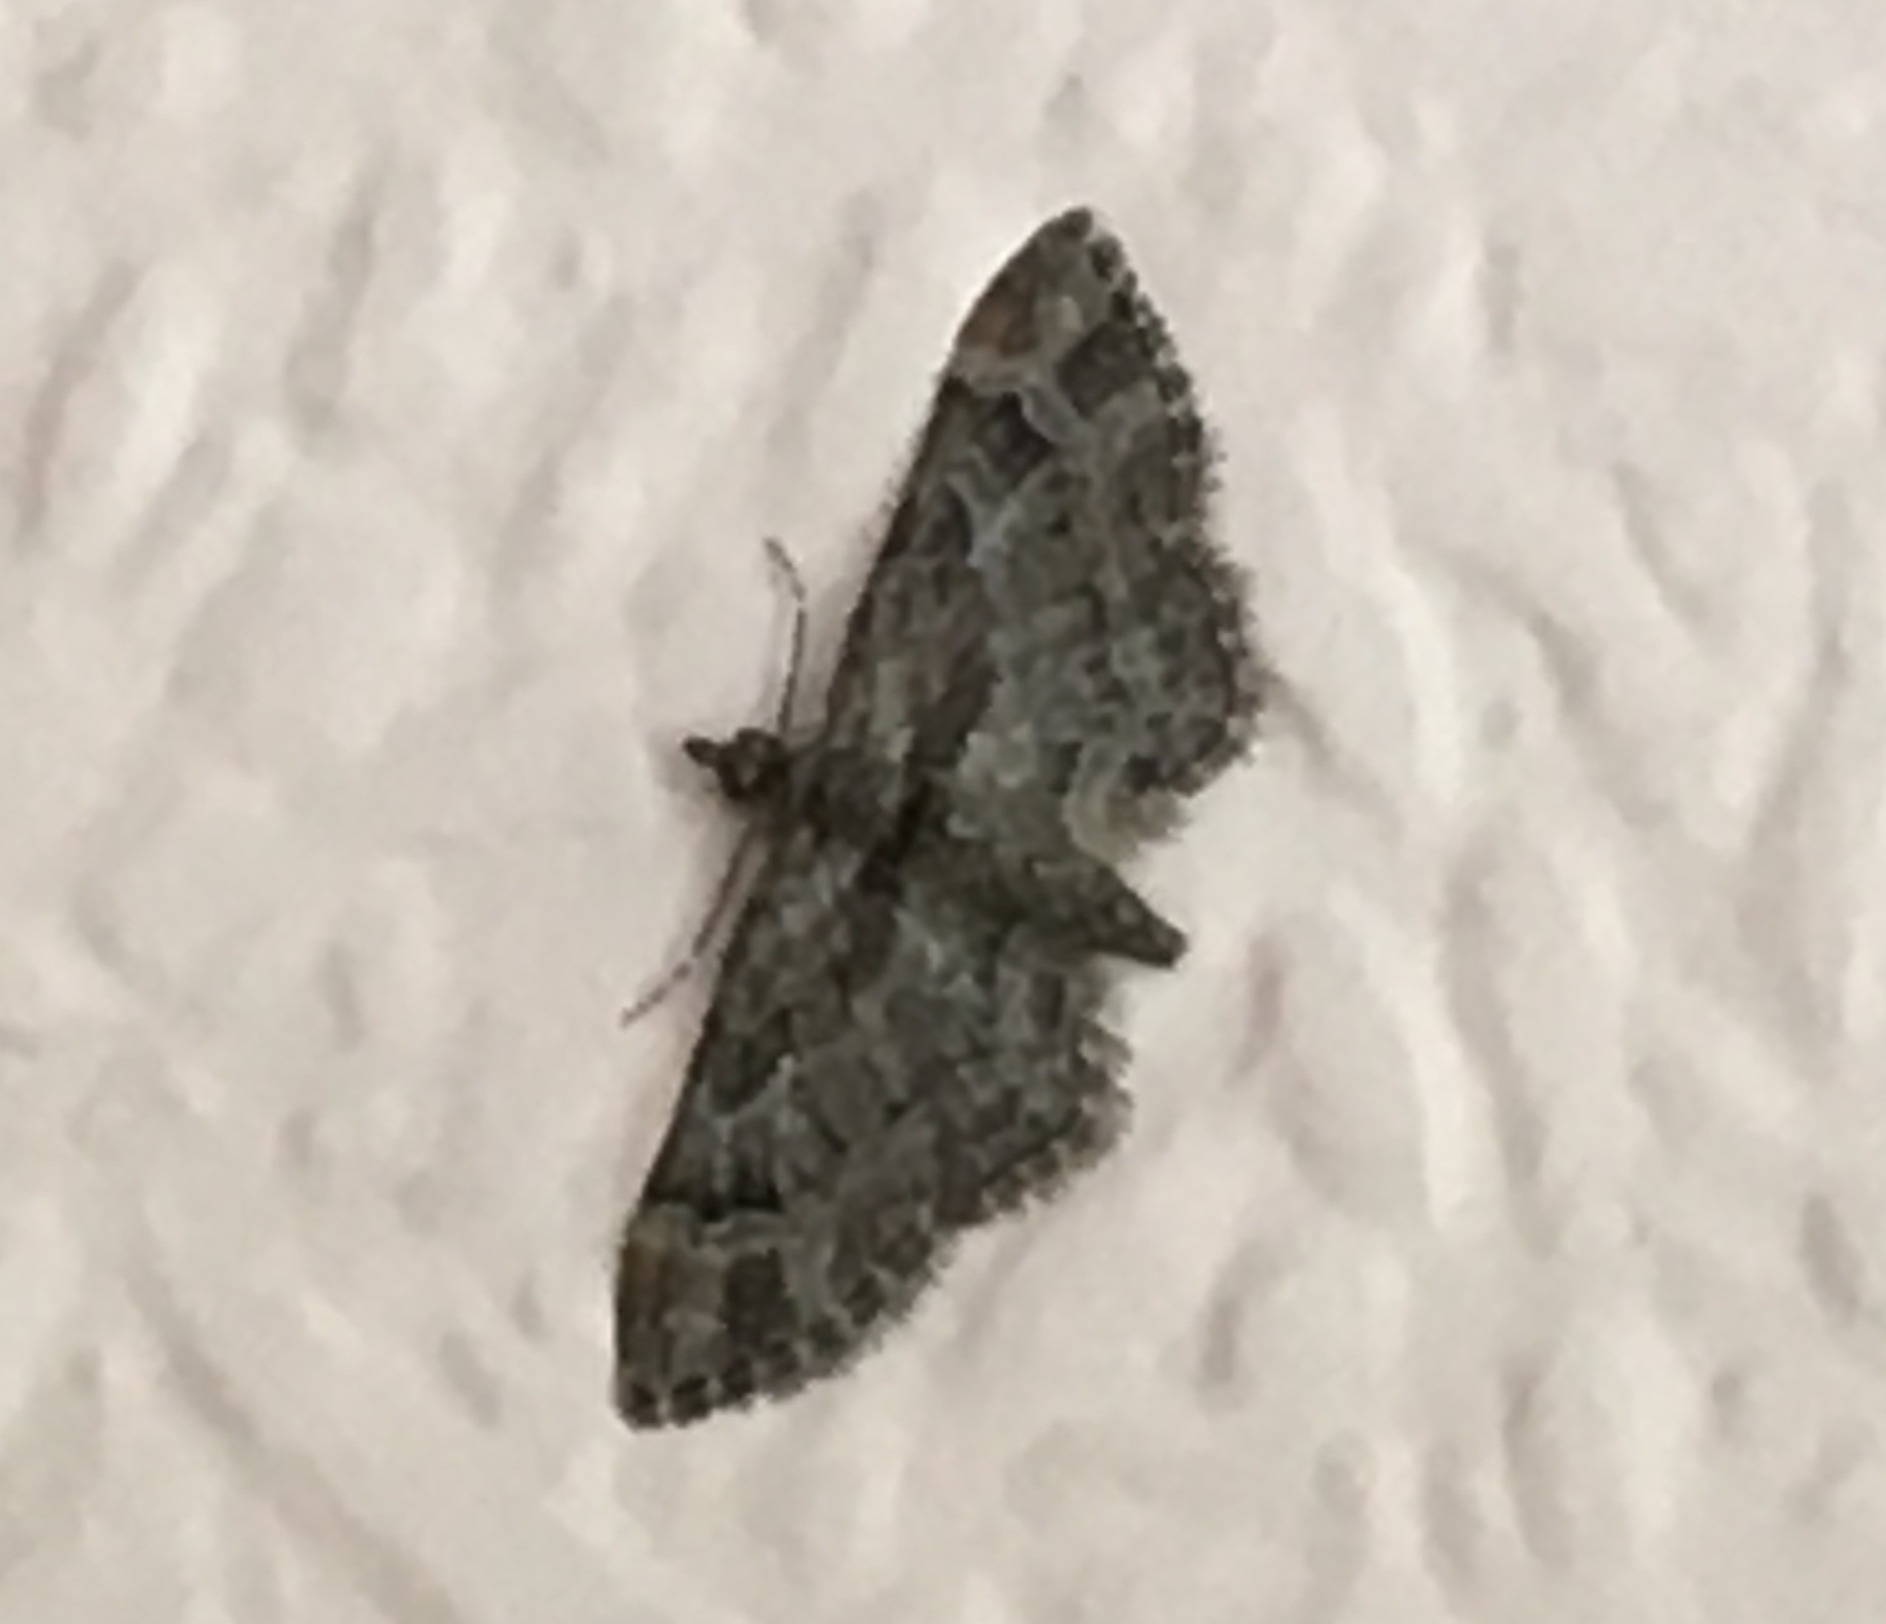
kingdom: Animalia
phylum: Arthropoda
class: Insecta
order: Lepidoptera
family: Geometridae
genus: Gymnoscelis
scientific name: Gymnoscelis rufifasciata
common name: Double-striped pug
